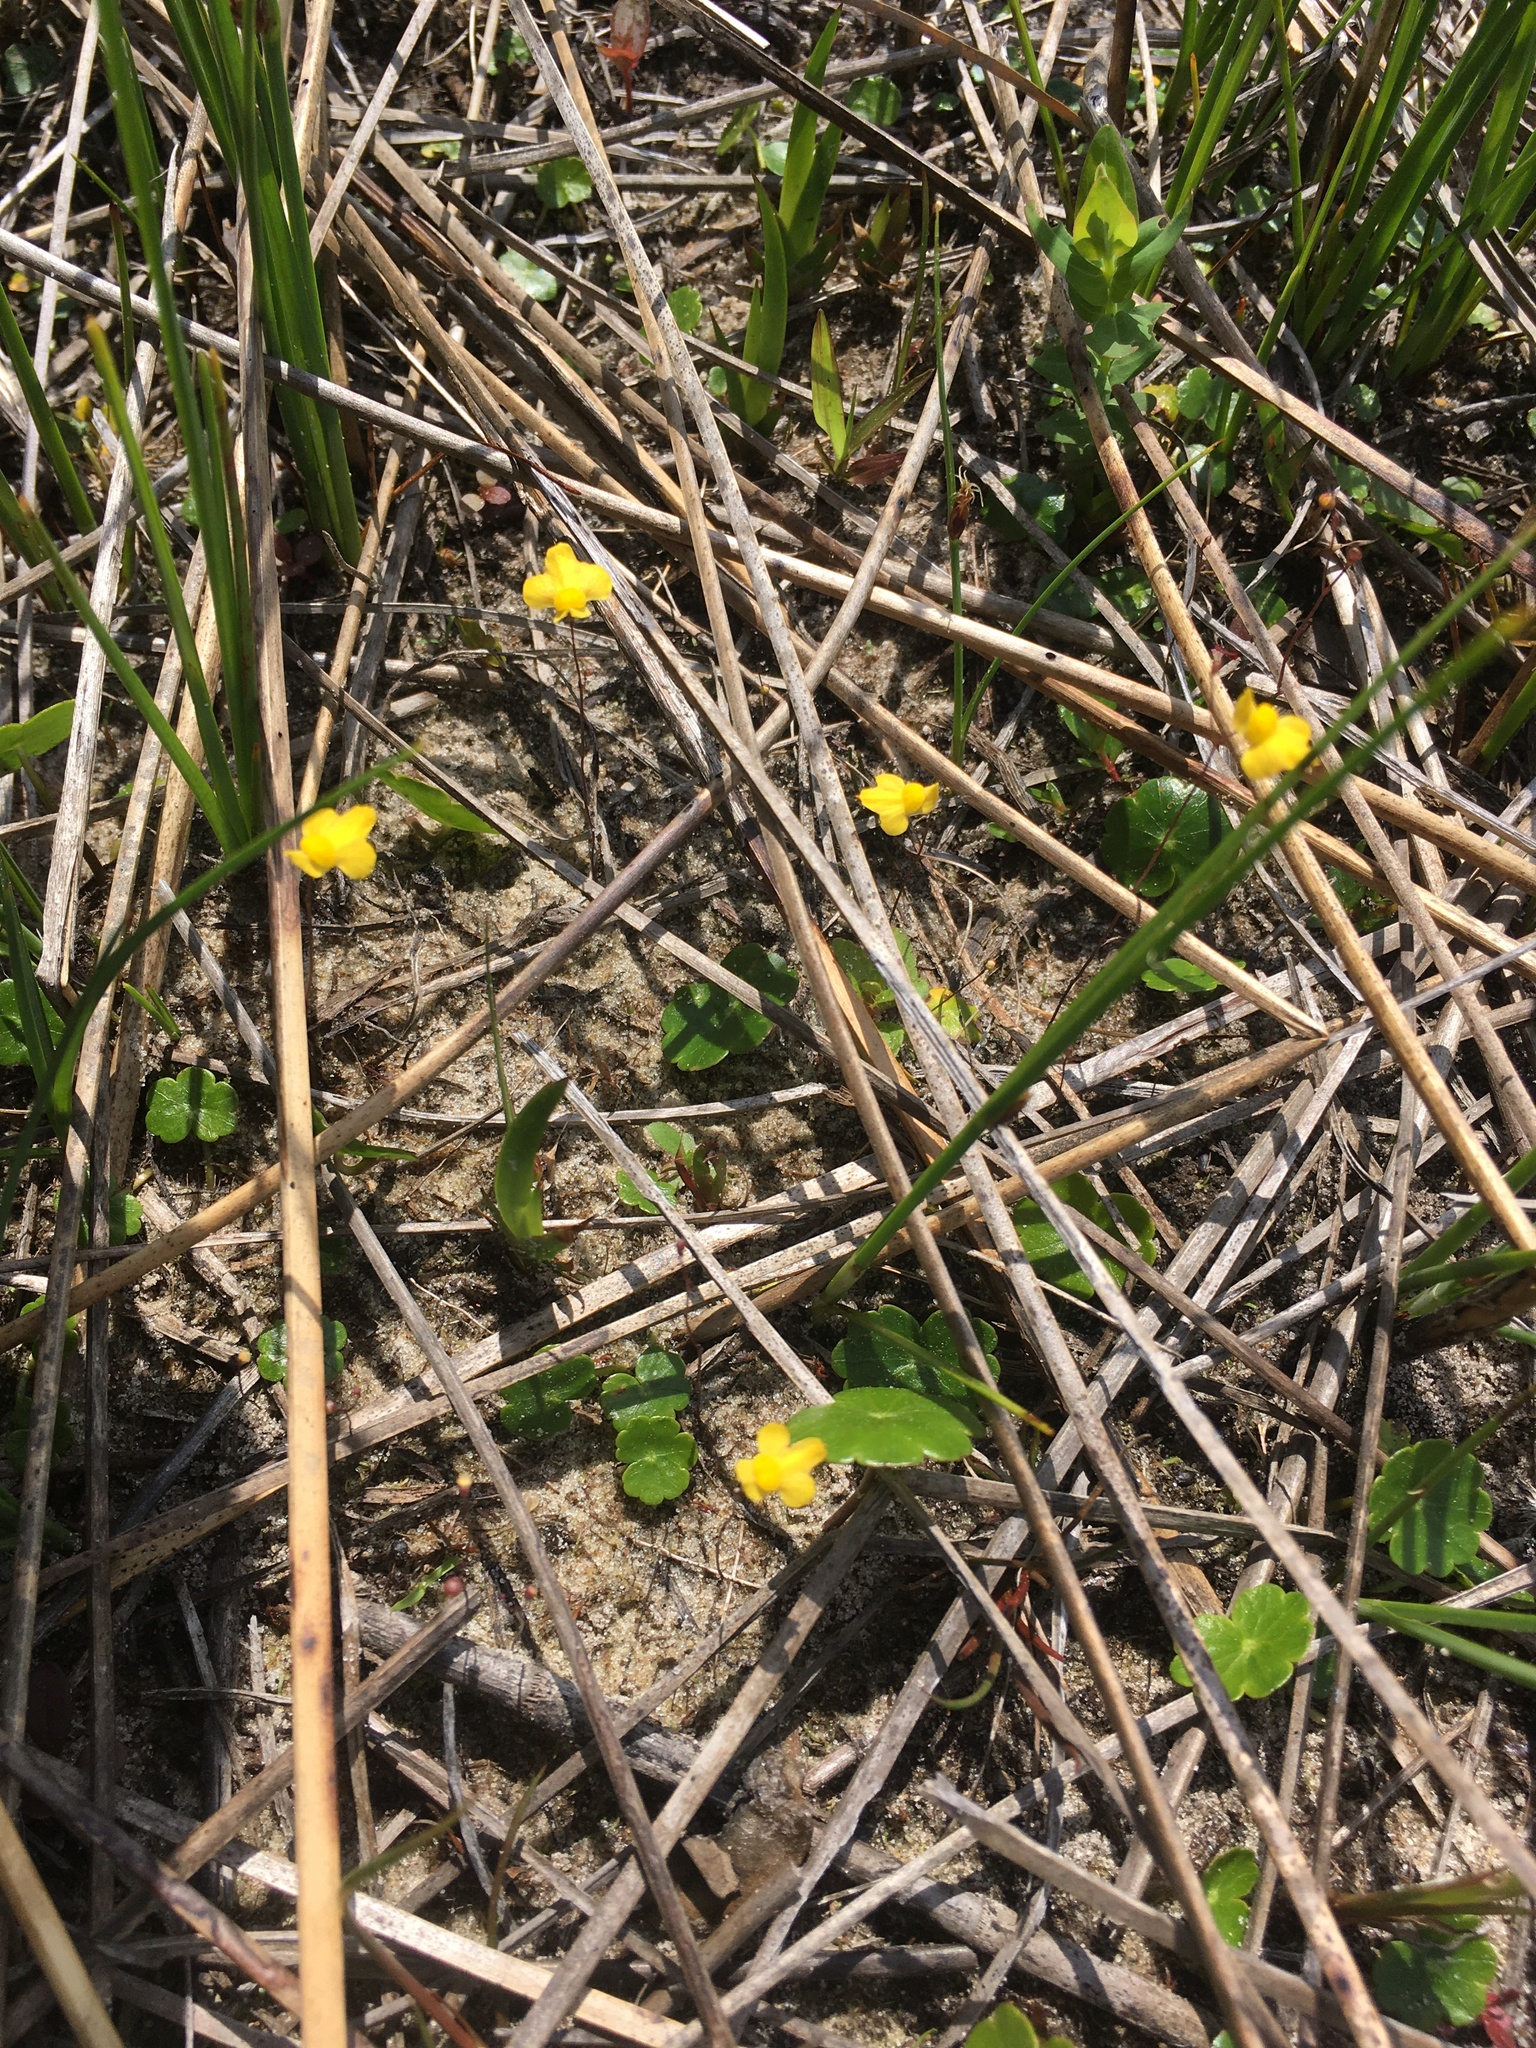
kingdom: Plantae
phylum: Tracheophyta
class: Magnoliopsida
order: Lamiales
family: Lentibulariaceae
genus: Utricularia
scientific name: Utricularia subulata
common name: Tiny bladderwort
